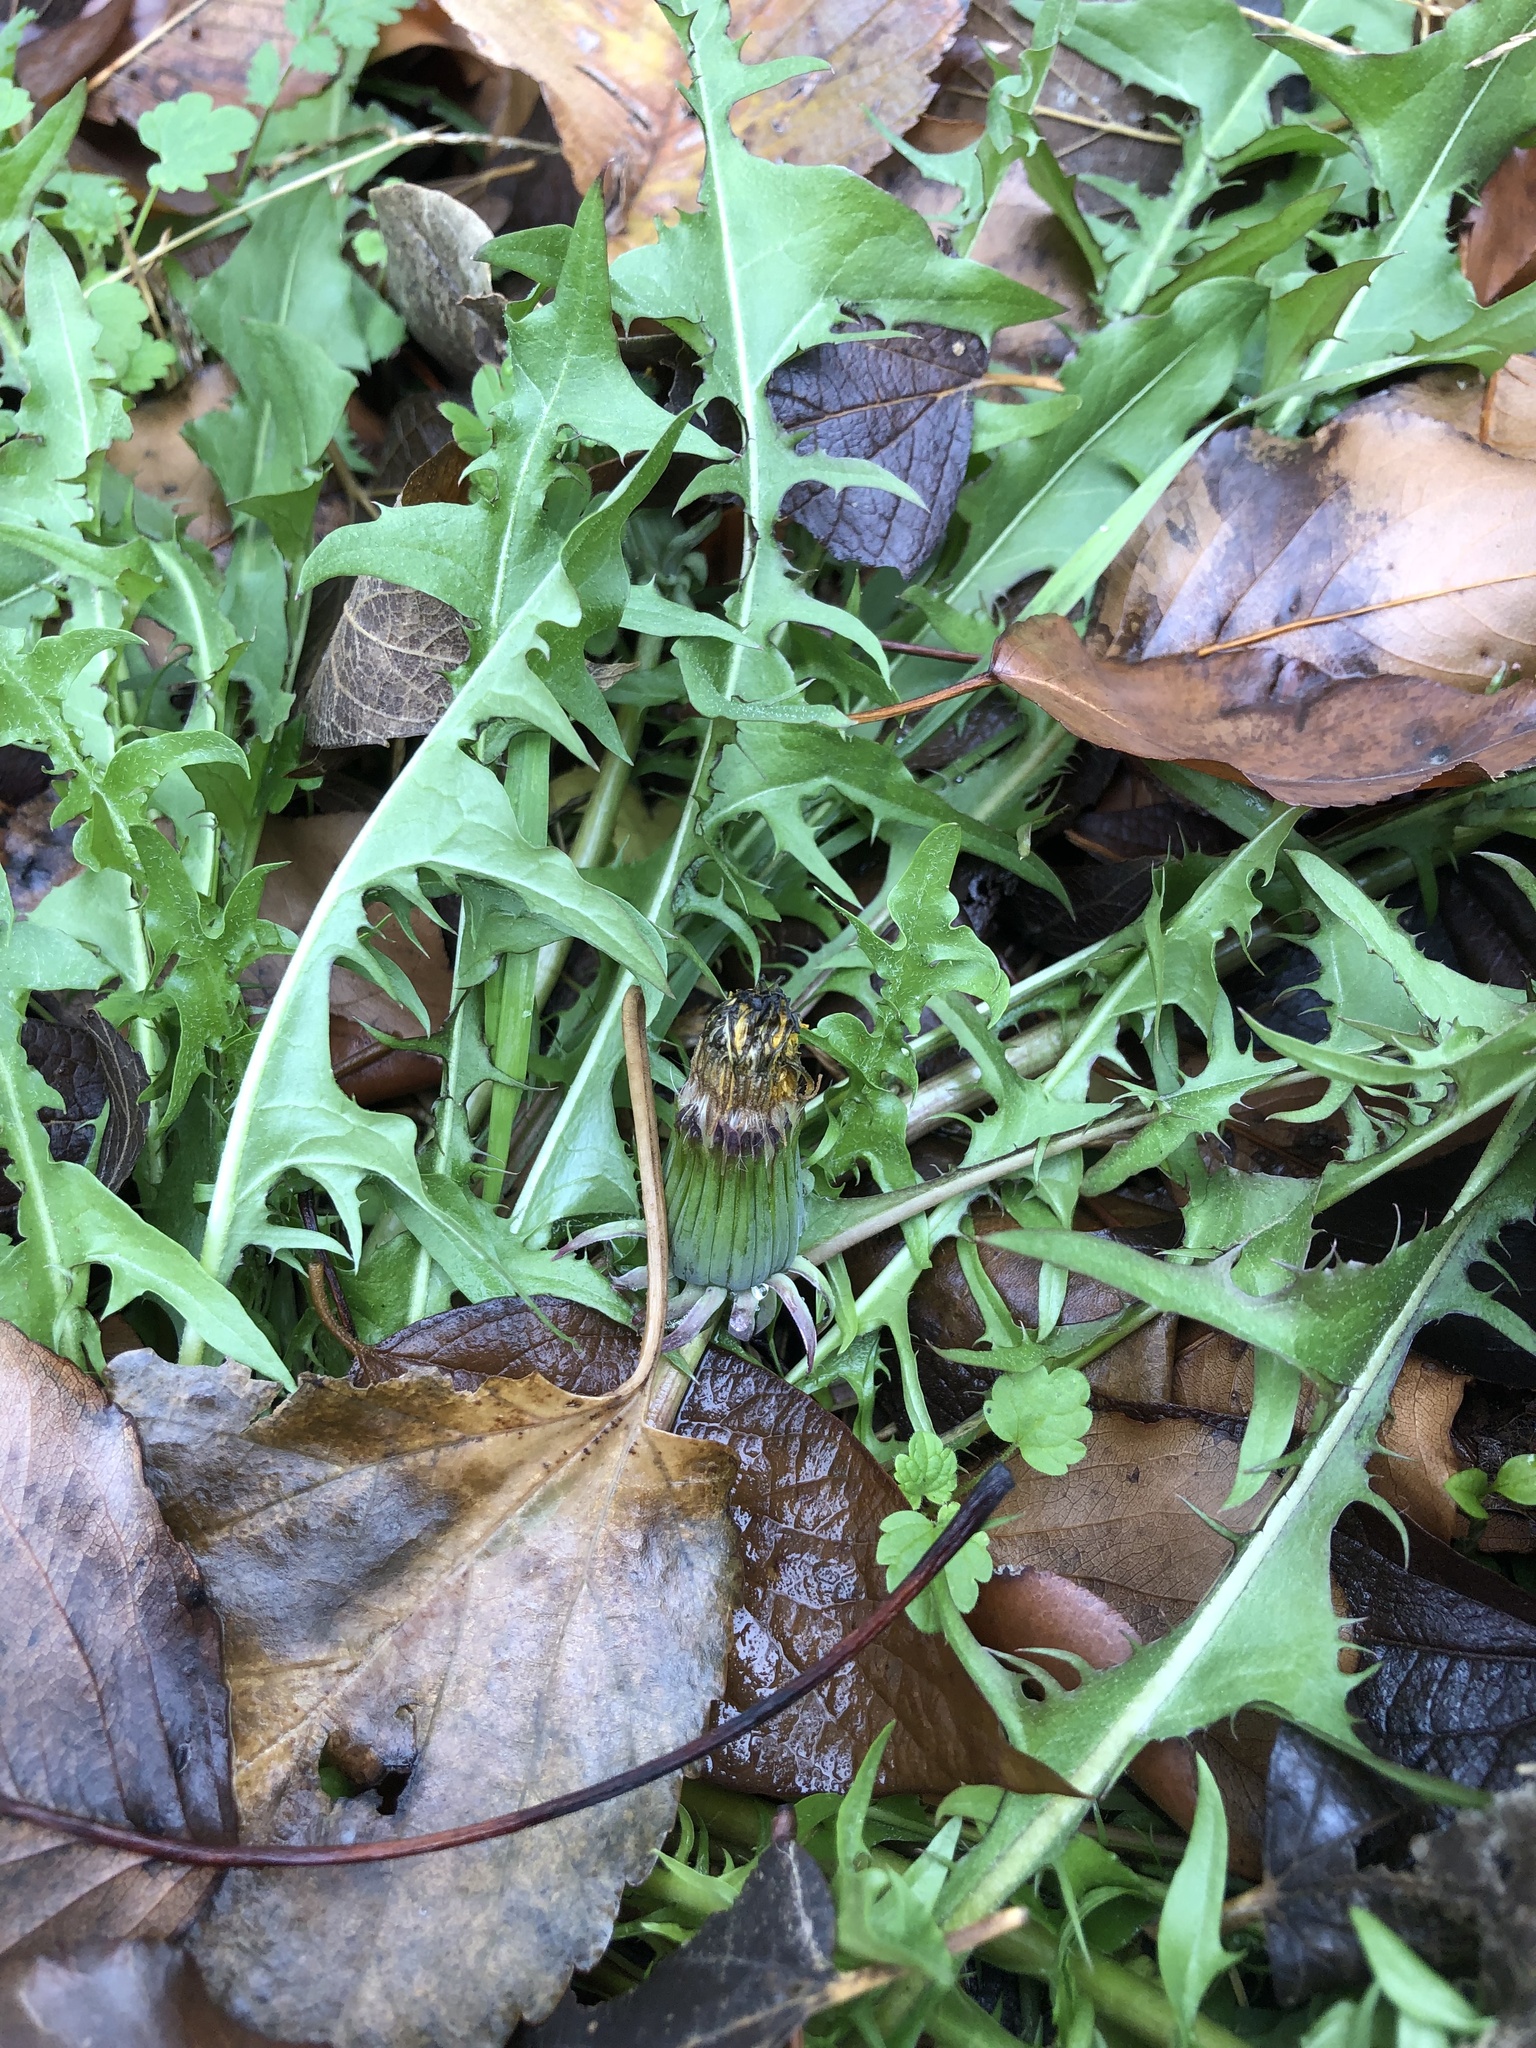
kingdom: Plantae
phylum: Tracheophyta
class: Magnoliopsida
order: Asterales
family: Asteraceae
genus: Taraxacum
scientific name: Taraxacum
